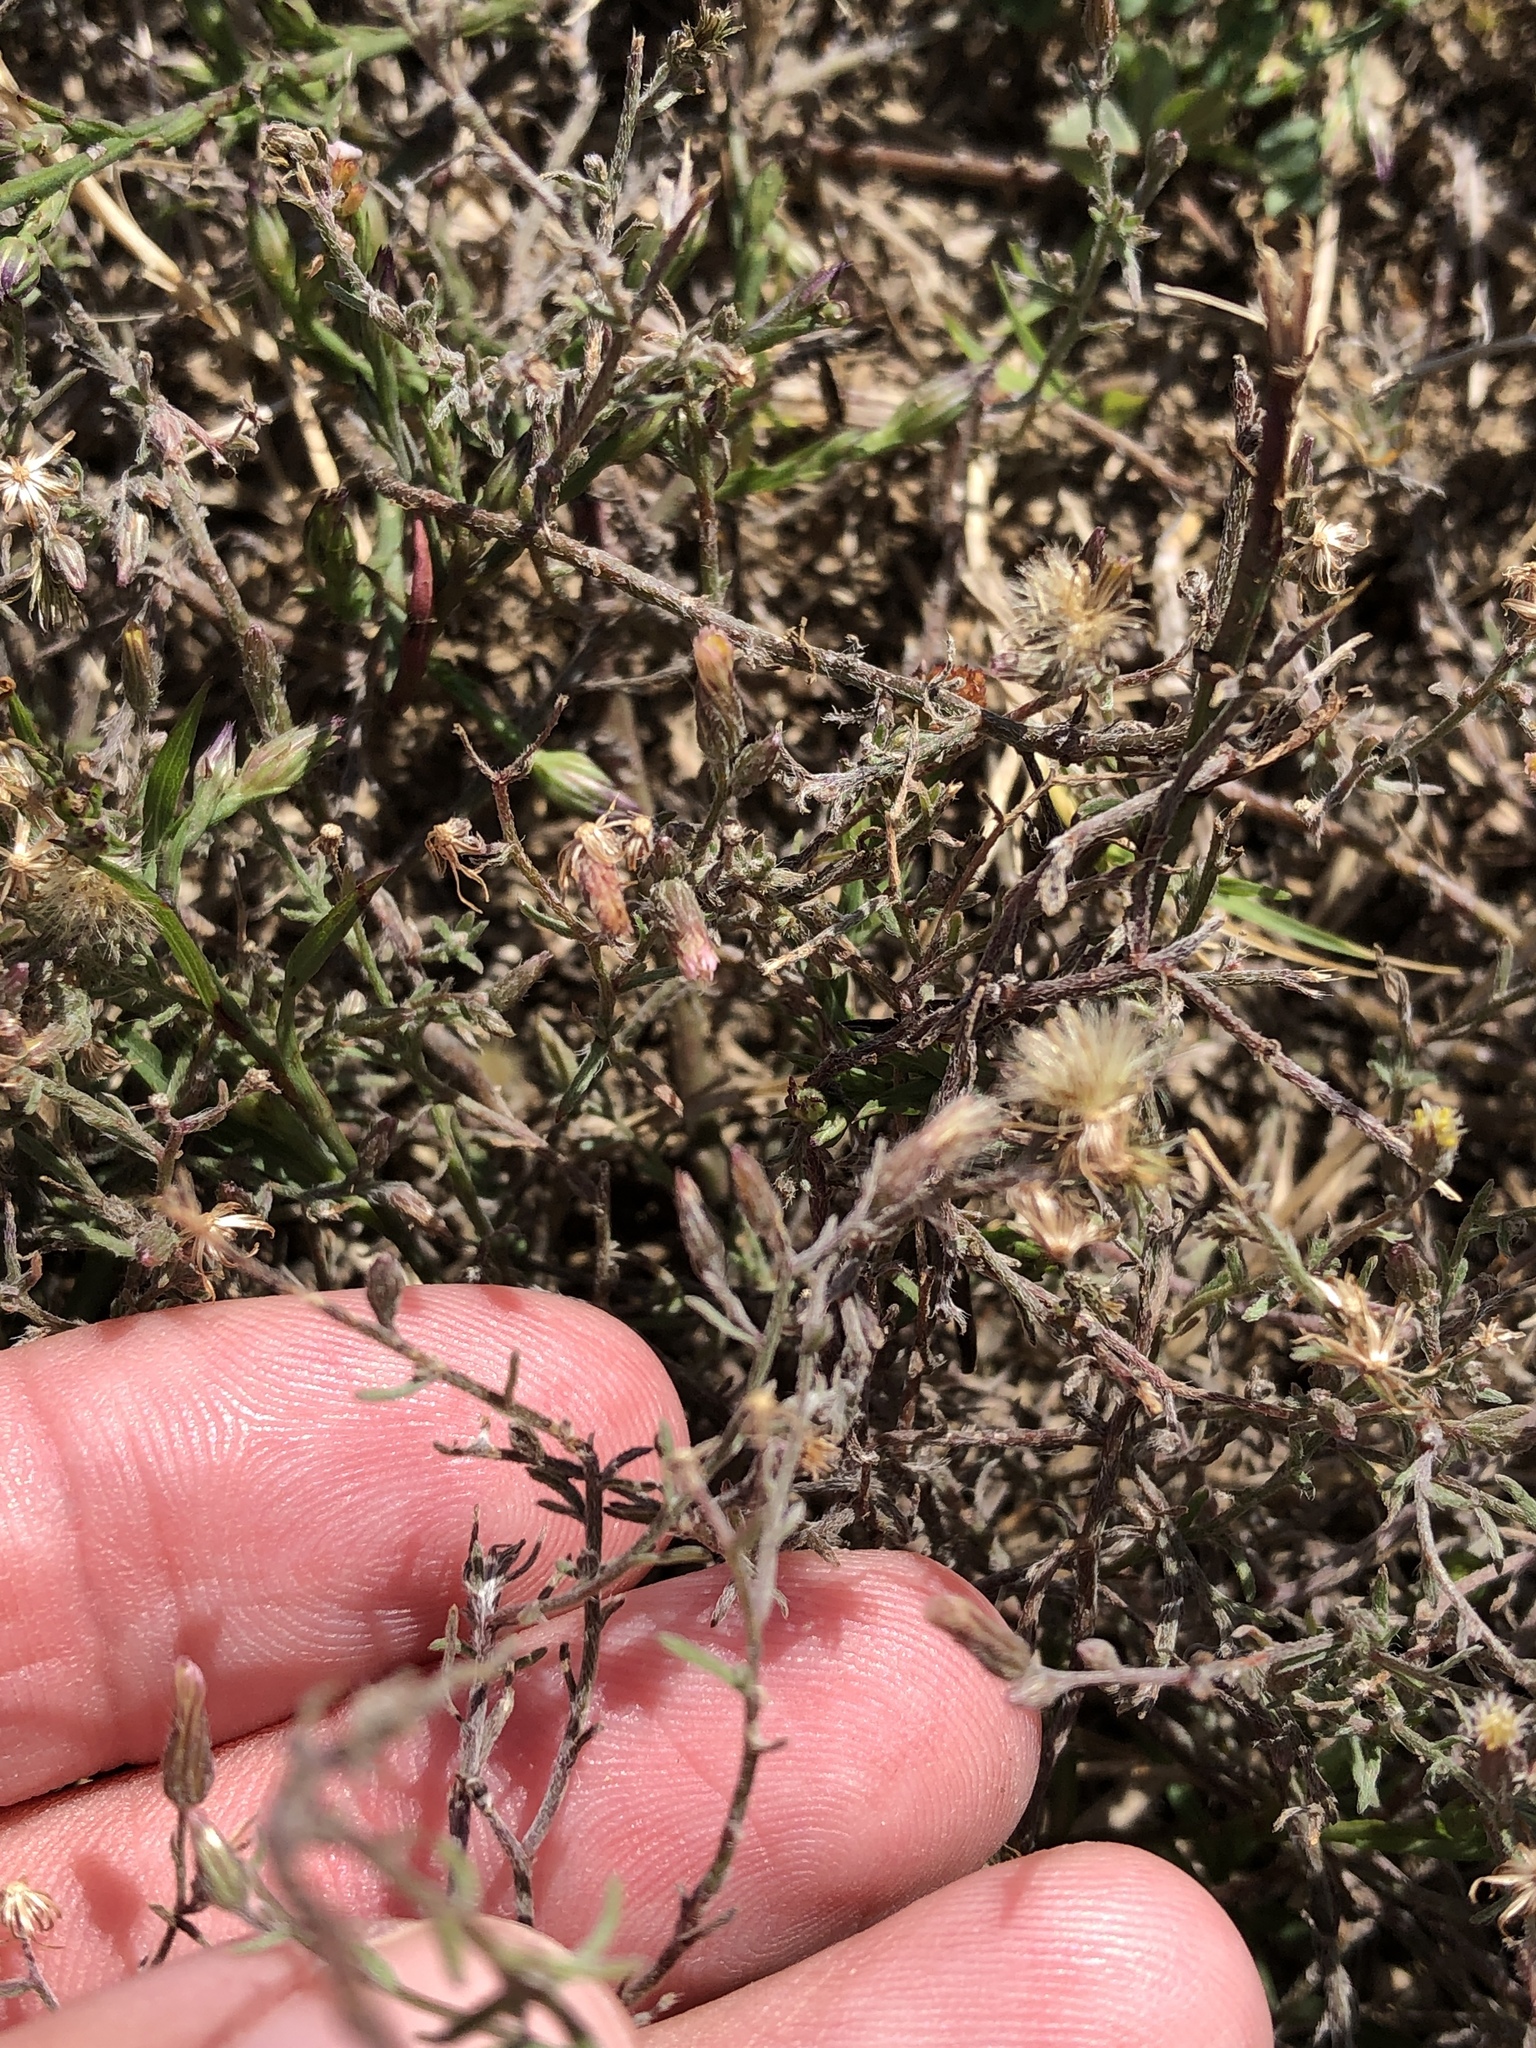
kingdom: Plantae
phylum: Tracheophyta
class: Magnoliopsida
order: Asterales
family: Asteraceae
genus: Erigeron
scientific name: Erigeron divaricatus
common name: Dwarf conyza
